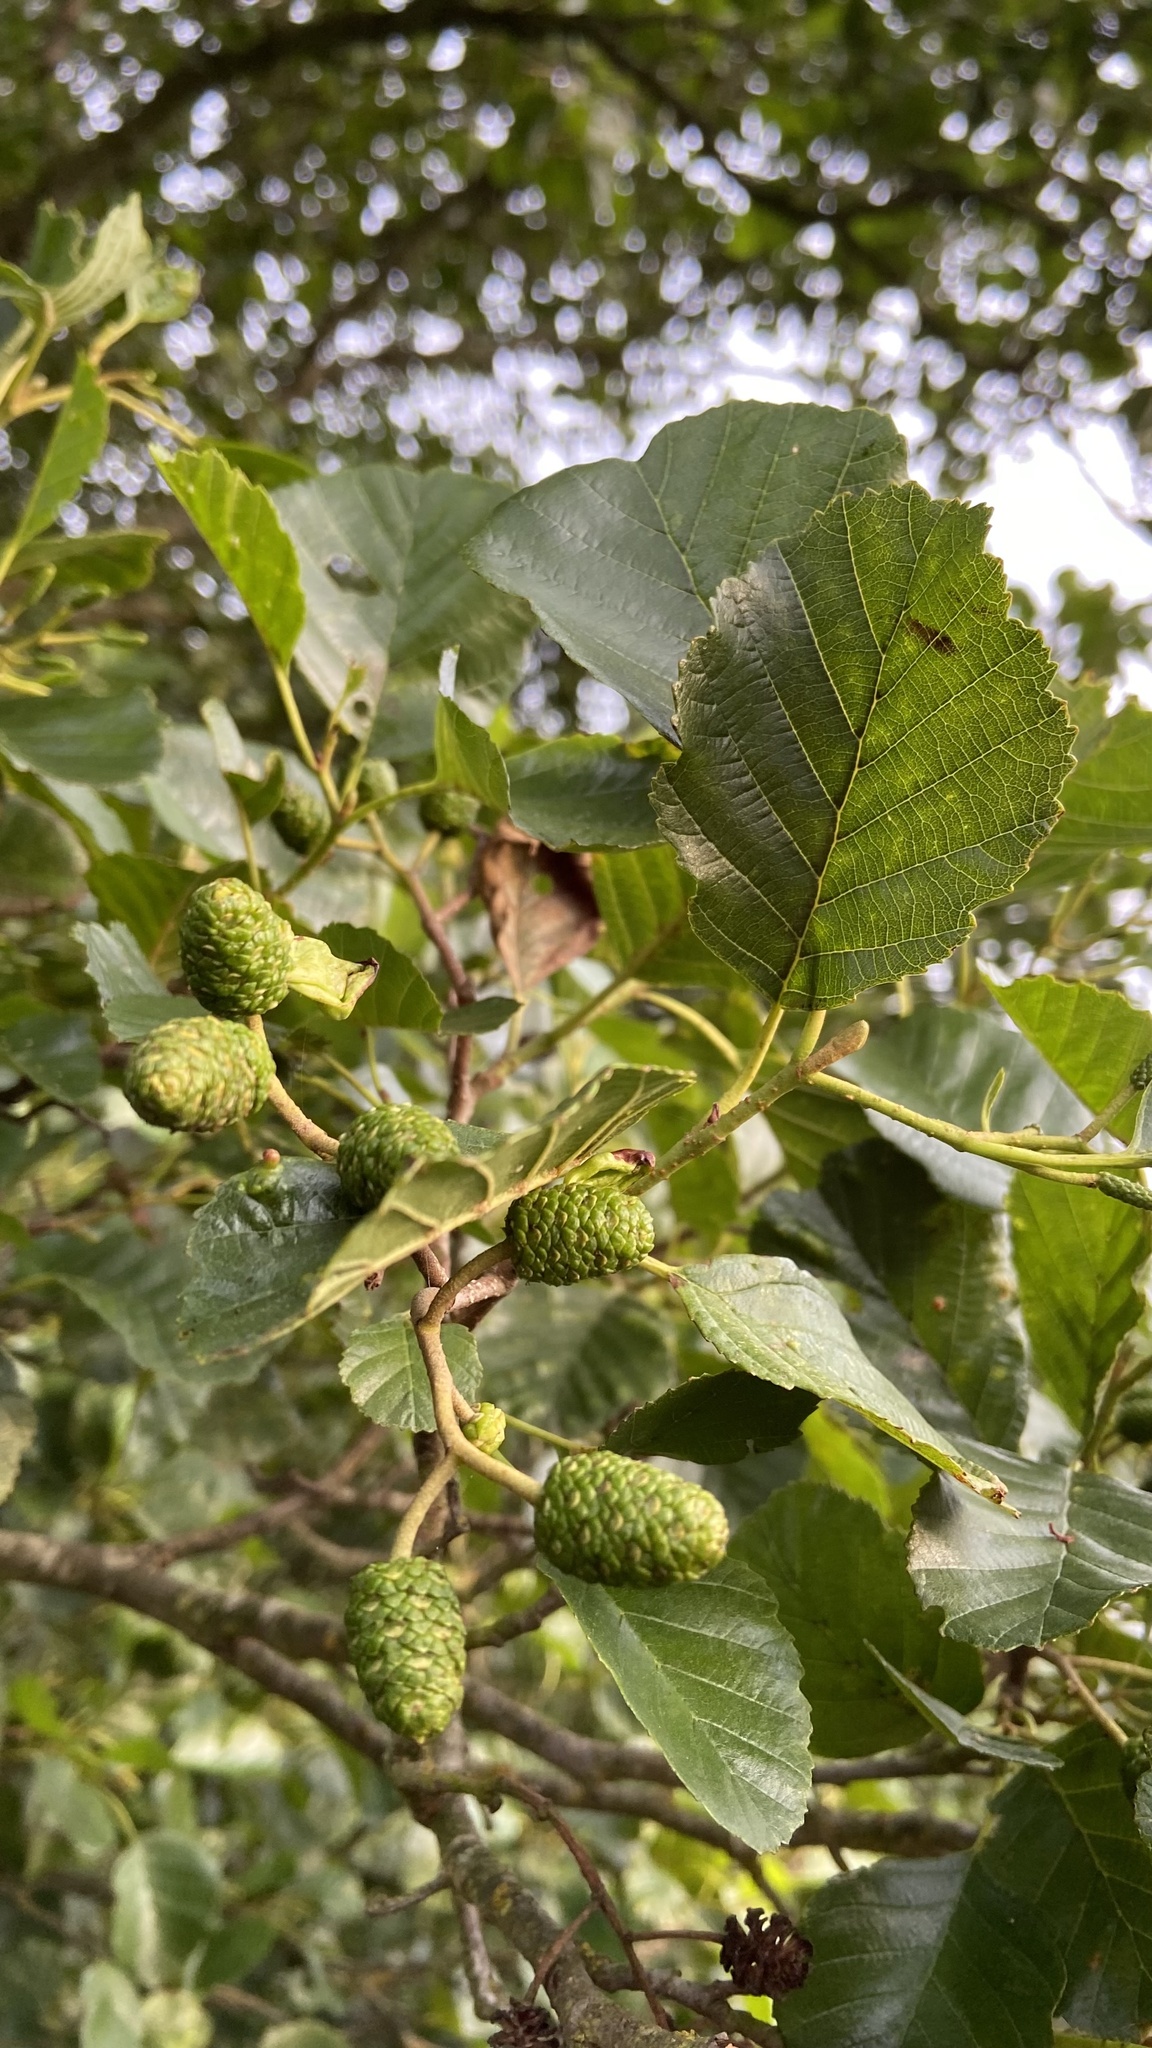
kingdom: Plantae
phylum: Tracheophyta
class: Magnoliopsida
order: Fagales
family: Betulaceae
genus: Alnus
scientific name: Alnus glutinosa
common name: Black alder
